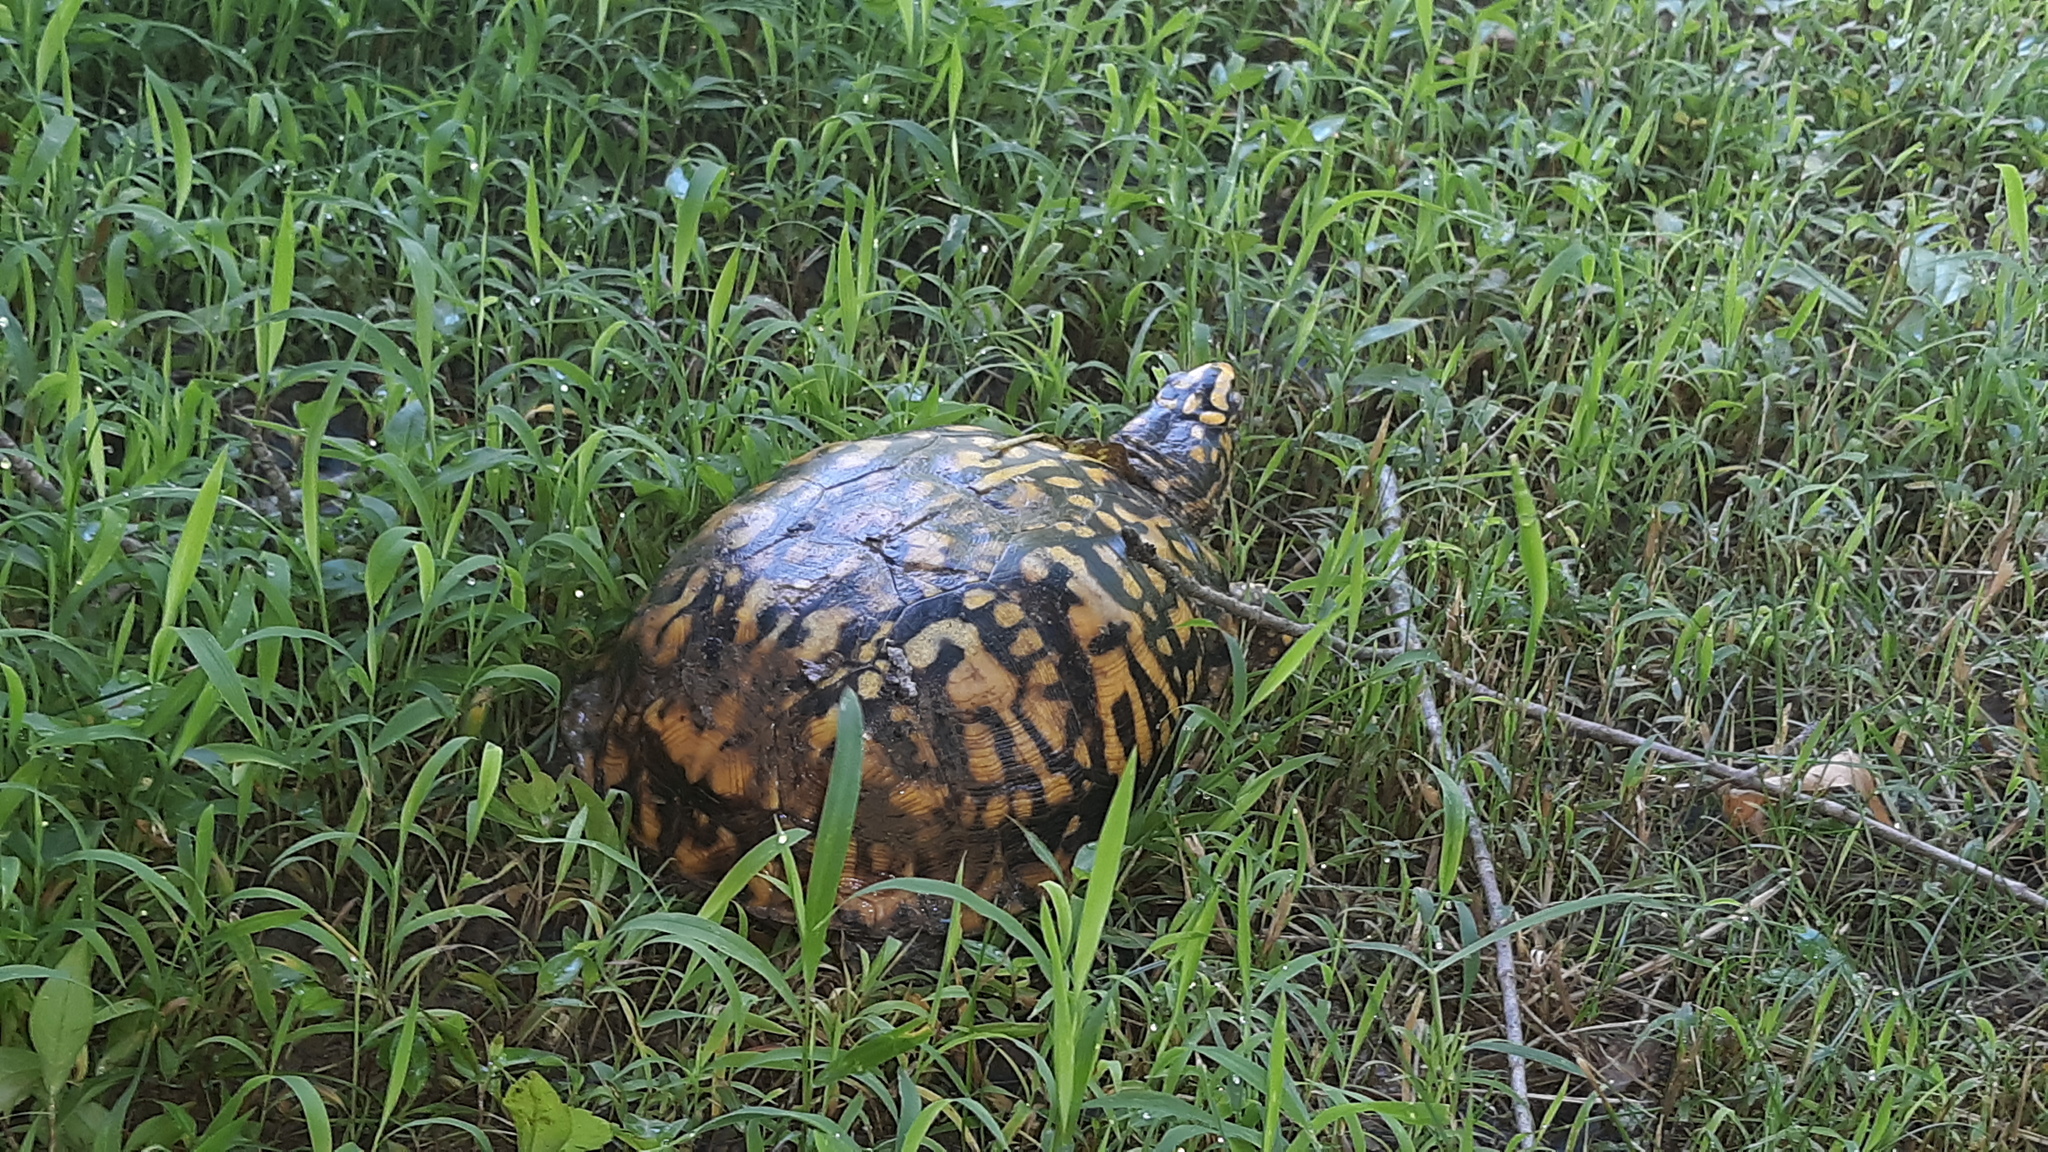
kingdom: Animalia
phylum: Chordata
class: Testudines
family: Emydidae
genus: Terrapene
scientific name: Terrapene carolina
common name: Common box turtle
